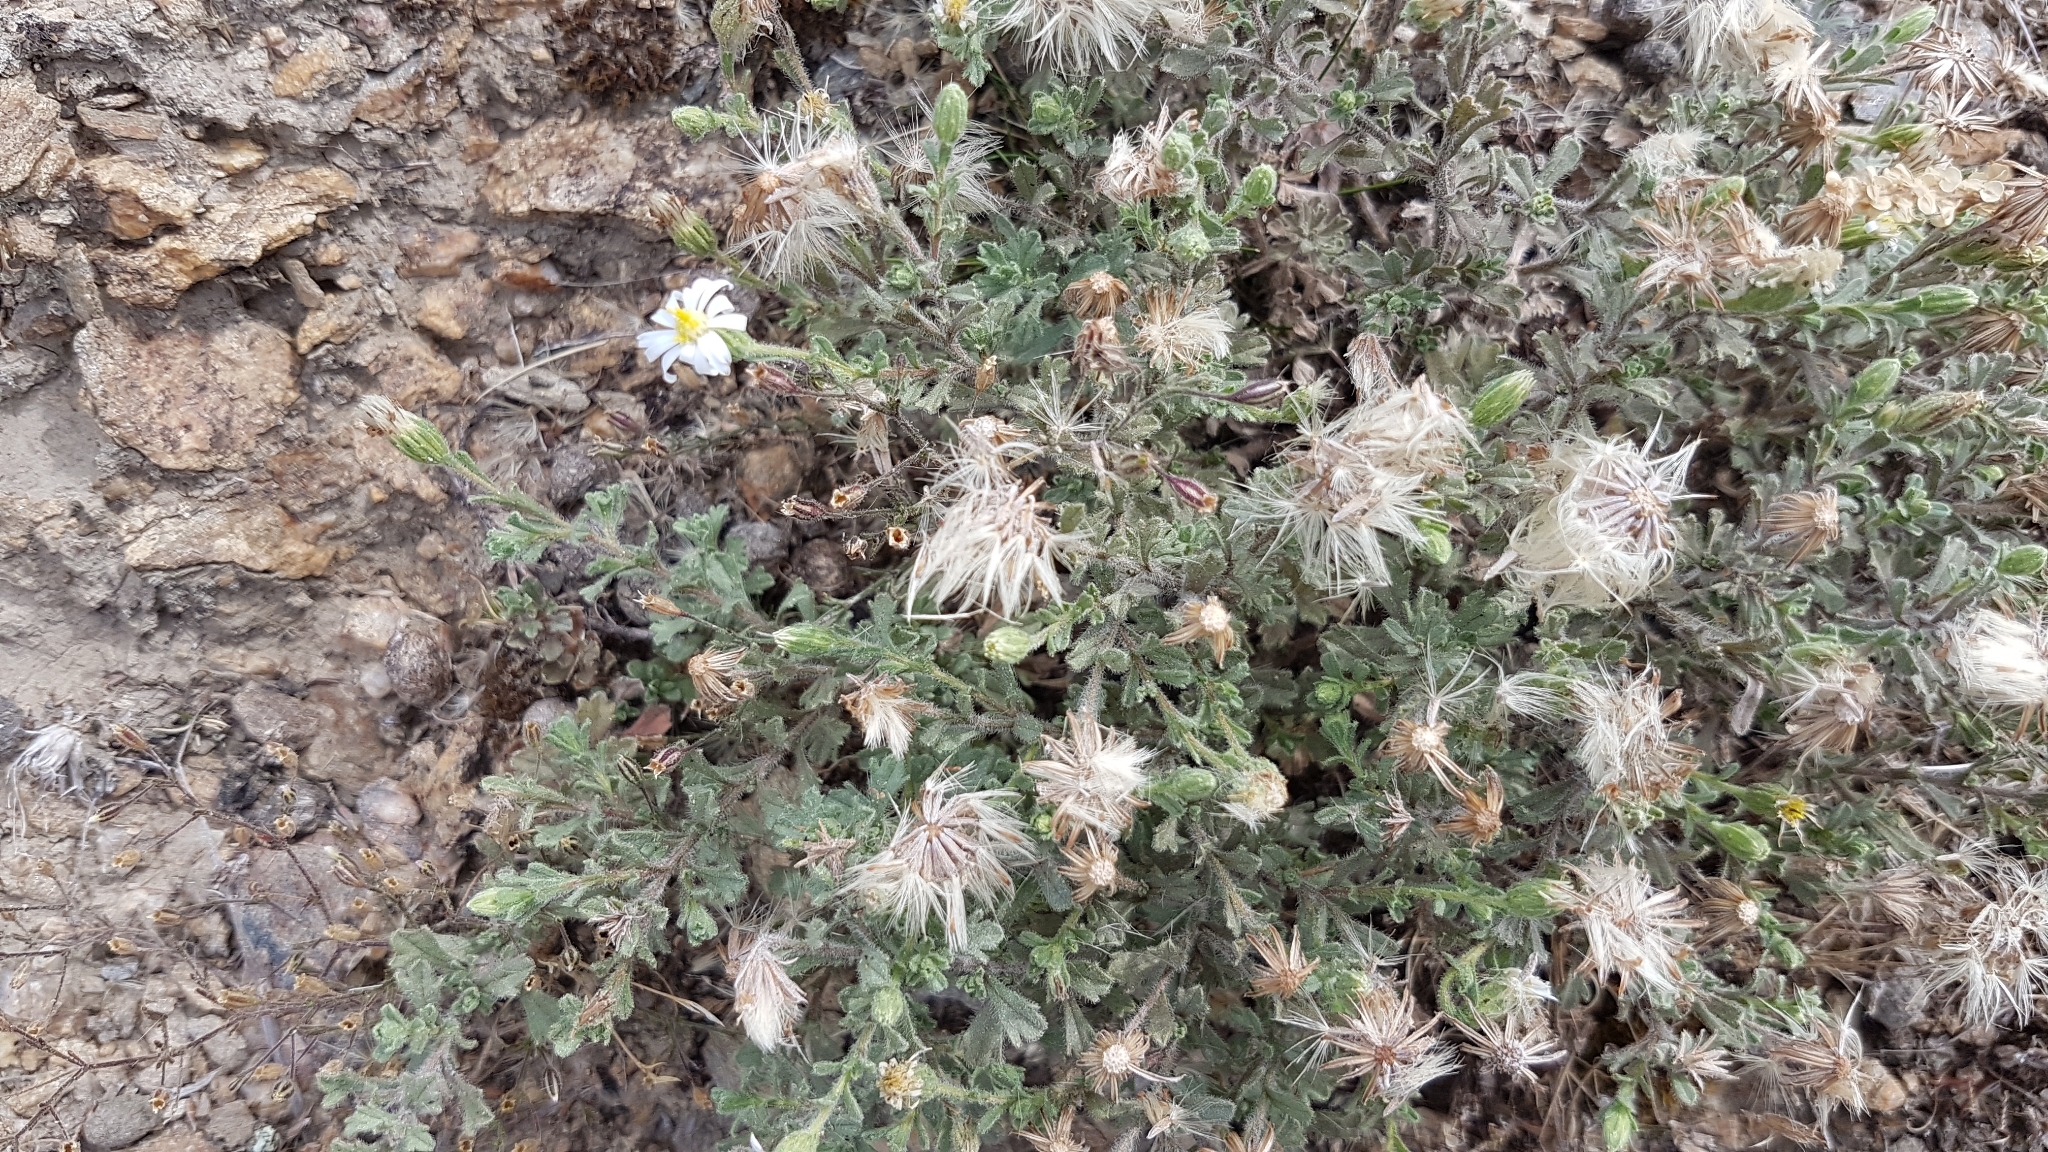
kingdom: Plantae
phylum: Tracheophyta
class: Magnoliopsida
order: Asterales
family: Asteraceae
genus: Vittadinia
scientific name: Vittadinia australis
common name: White fuzzweed
